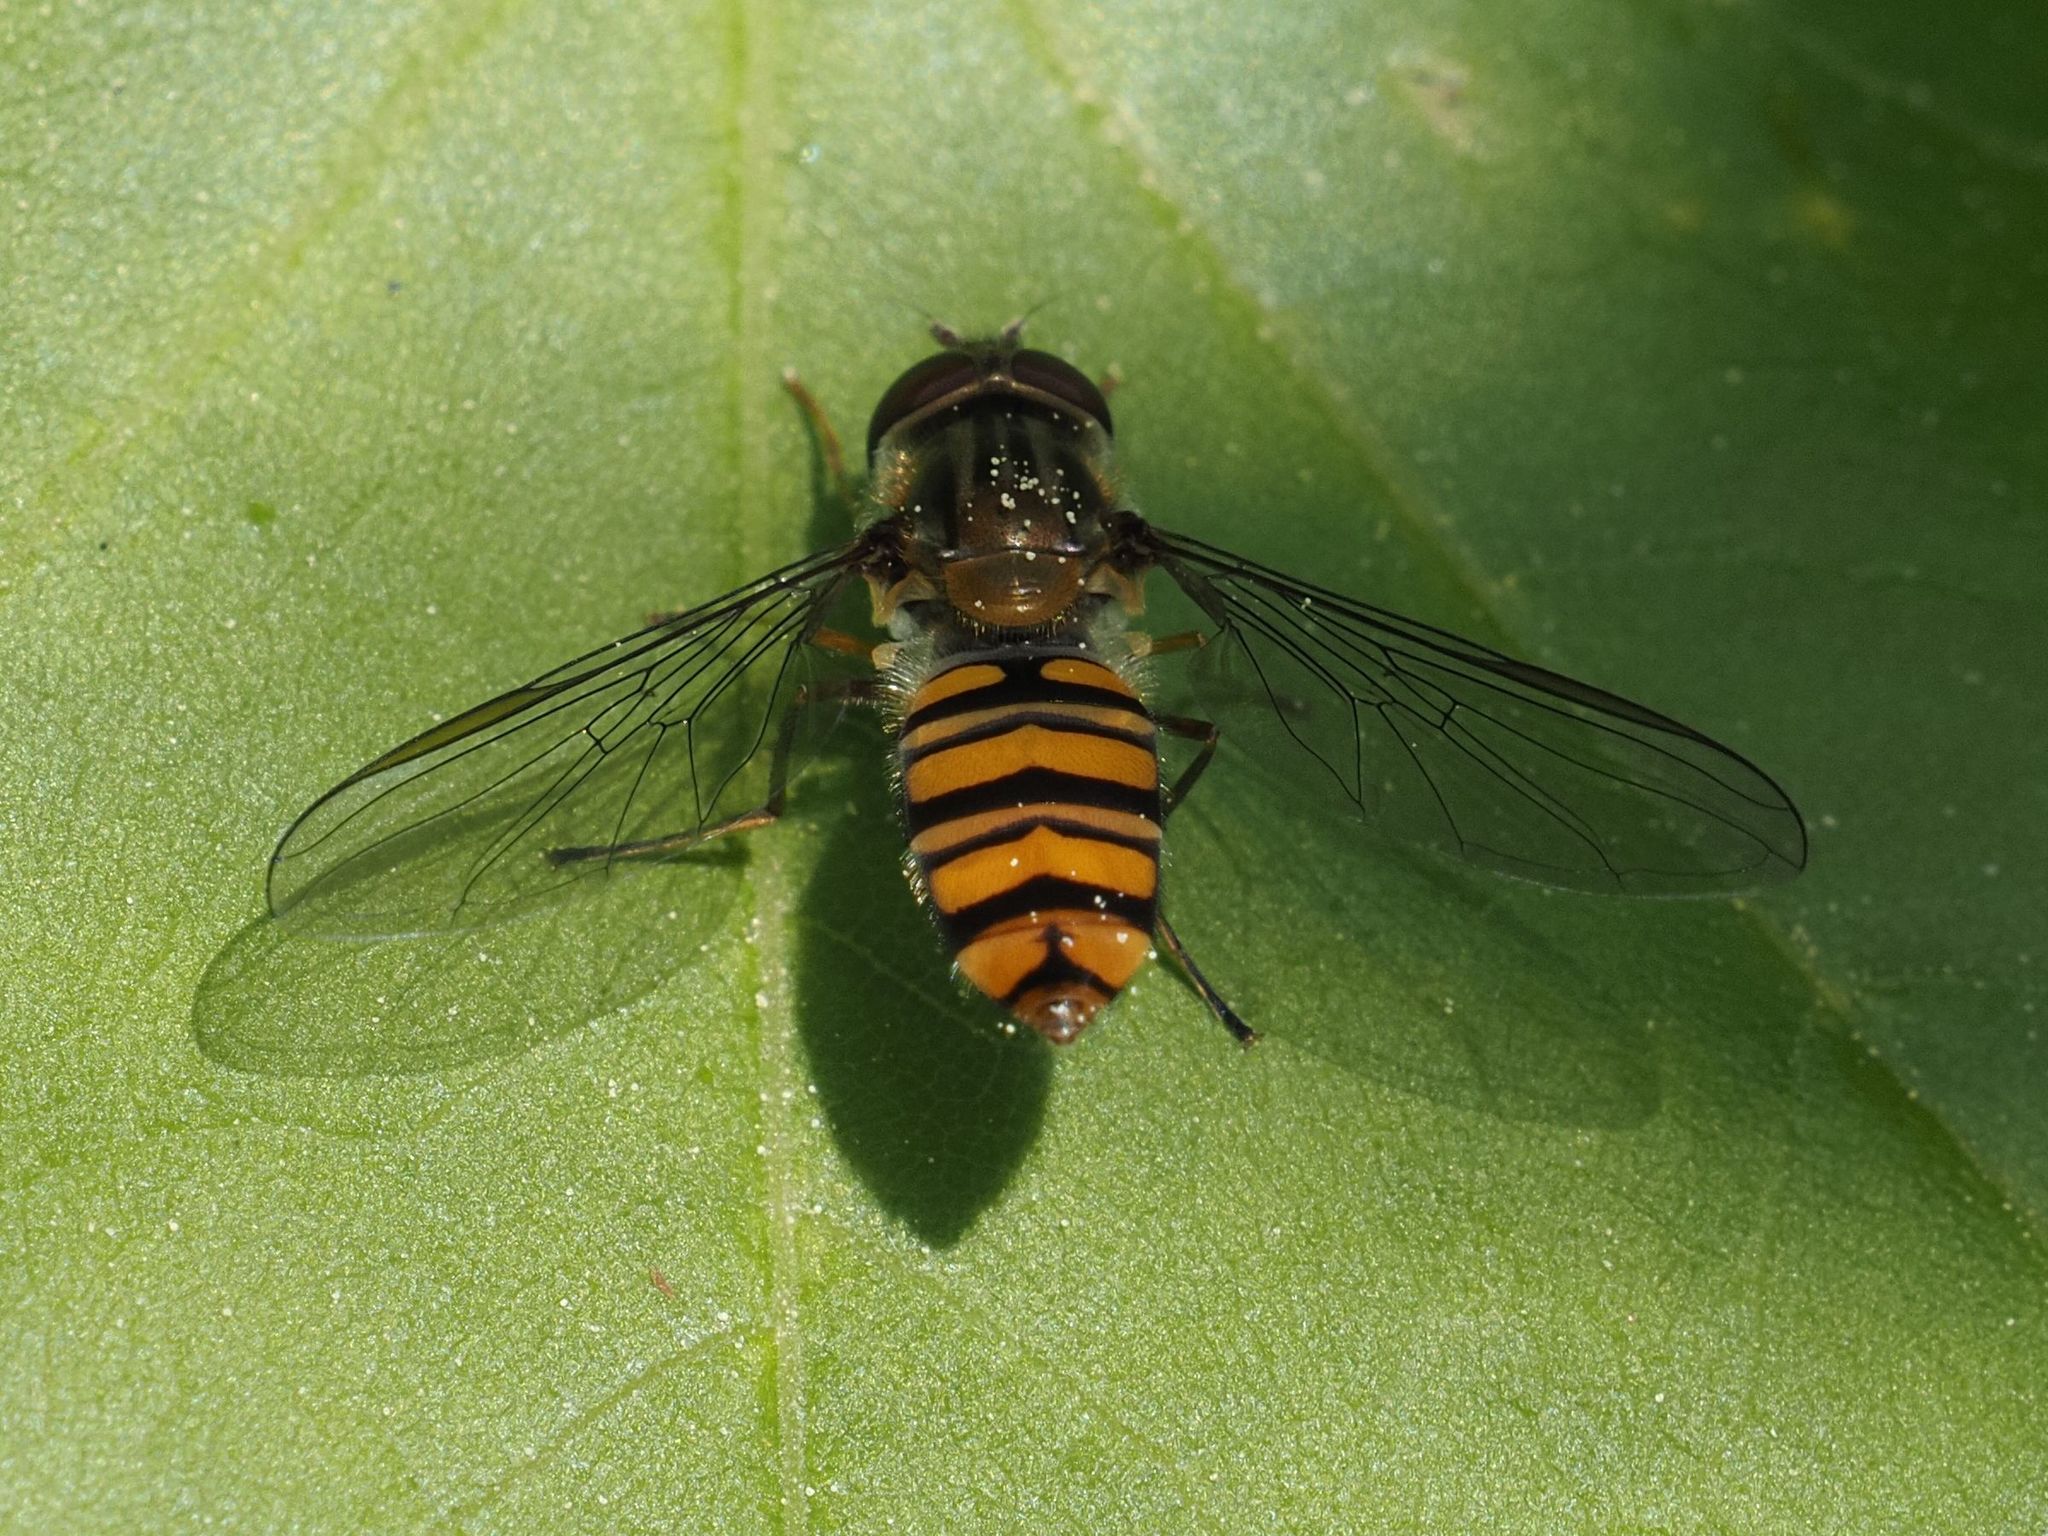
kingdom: Animalia
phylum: Arthropoda
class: Insecta
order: Diptera
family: Syrphidae
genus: Episyrphus
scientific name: Episyrphus balteatus
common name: Marmalade hoverfly
